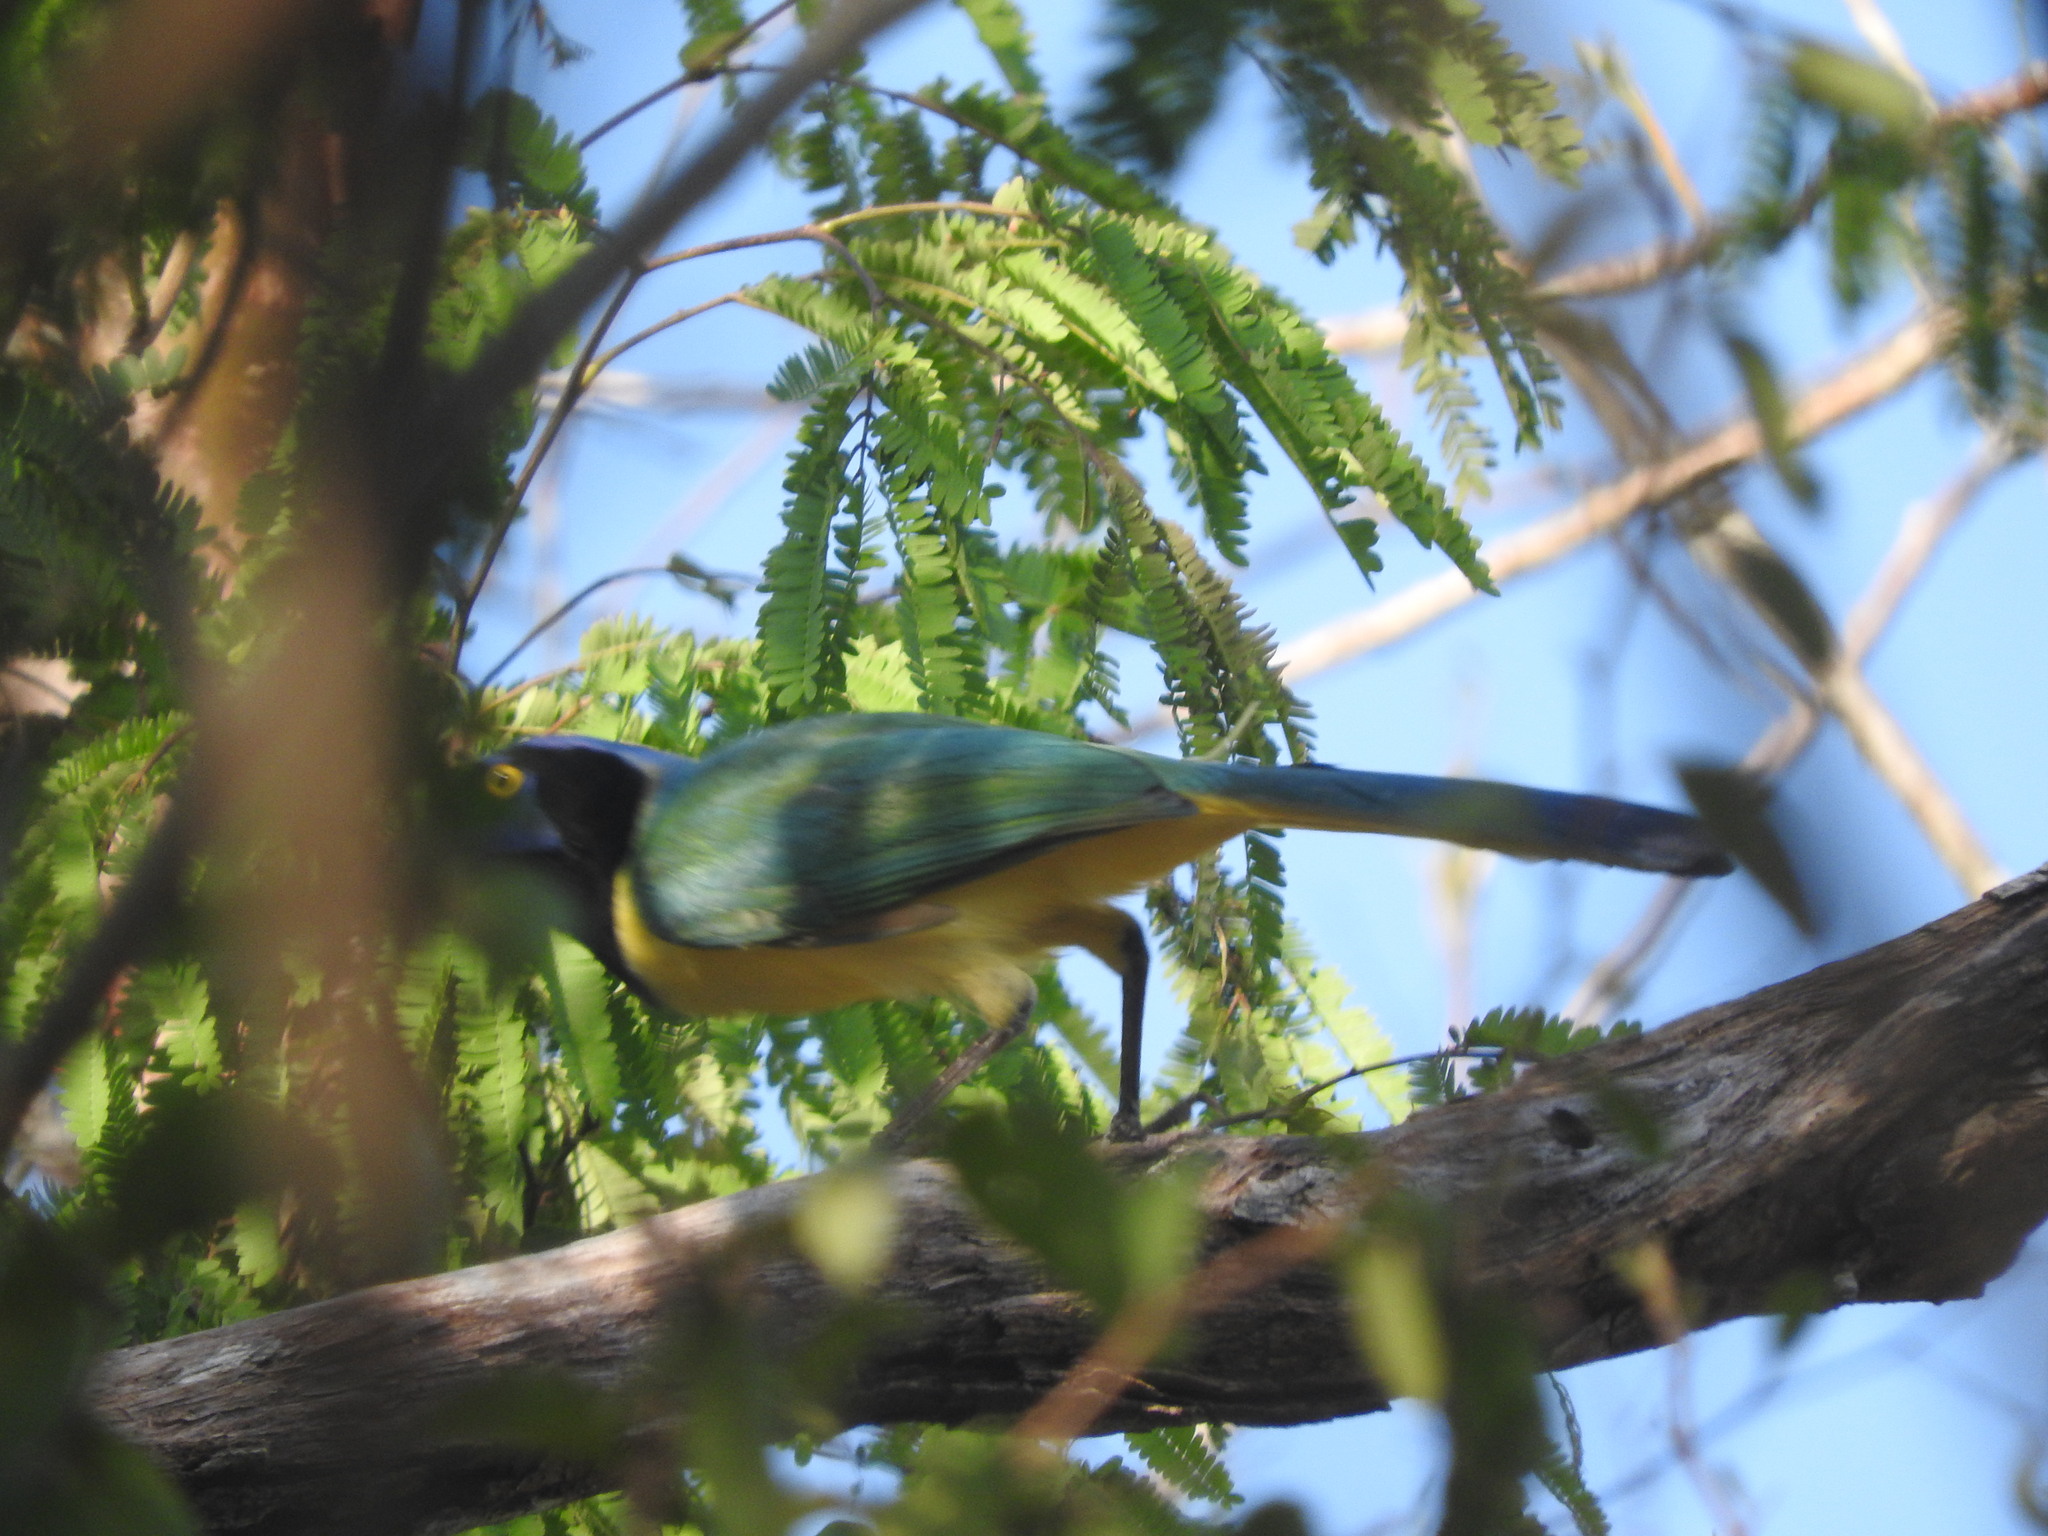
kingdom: Animalia
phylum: Chordata
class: Aves
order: Passeriformes
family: Corvidae
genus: Cyanocorax
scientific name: Cyanocorax yncas
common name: Green jay
